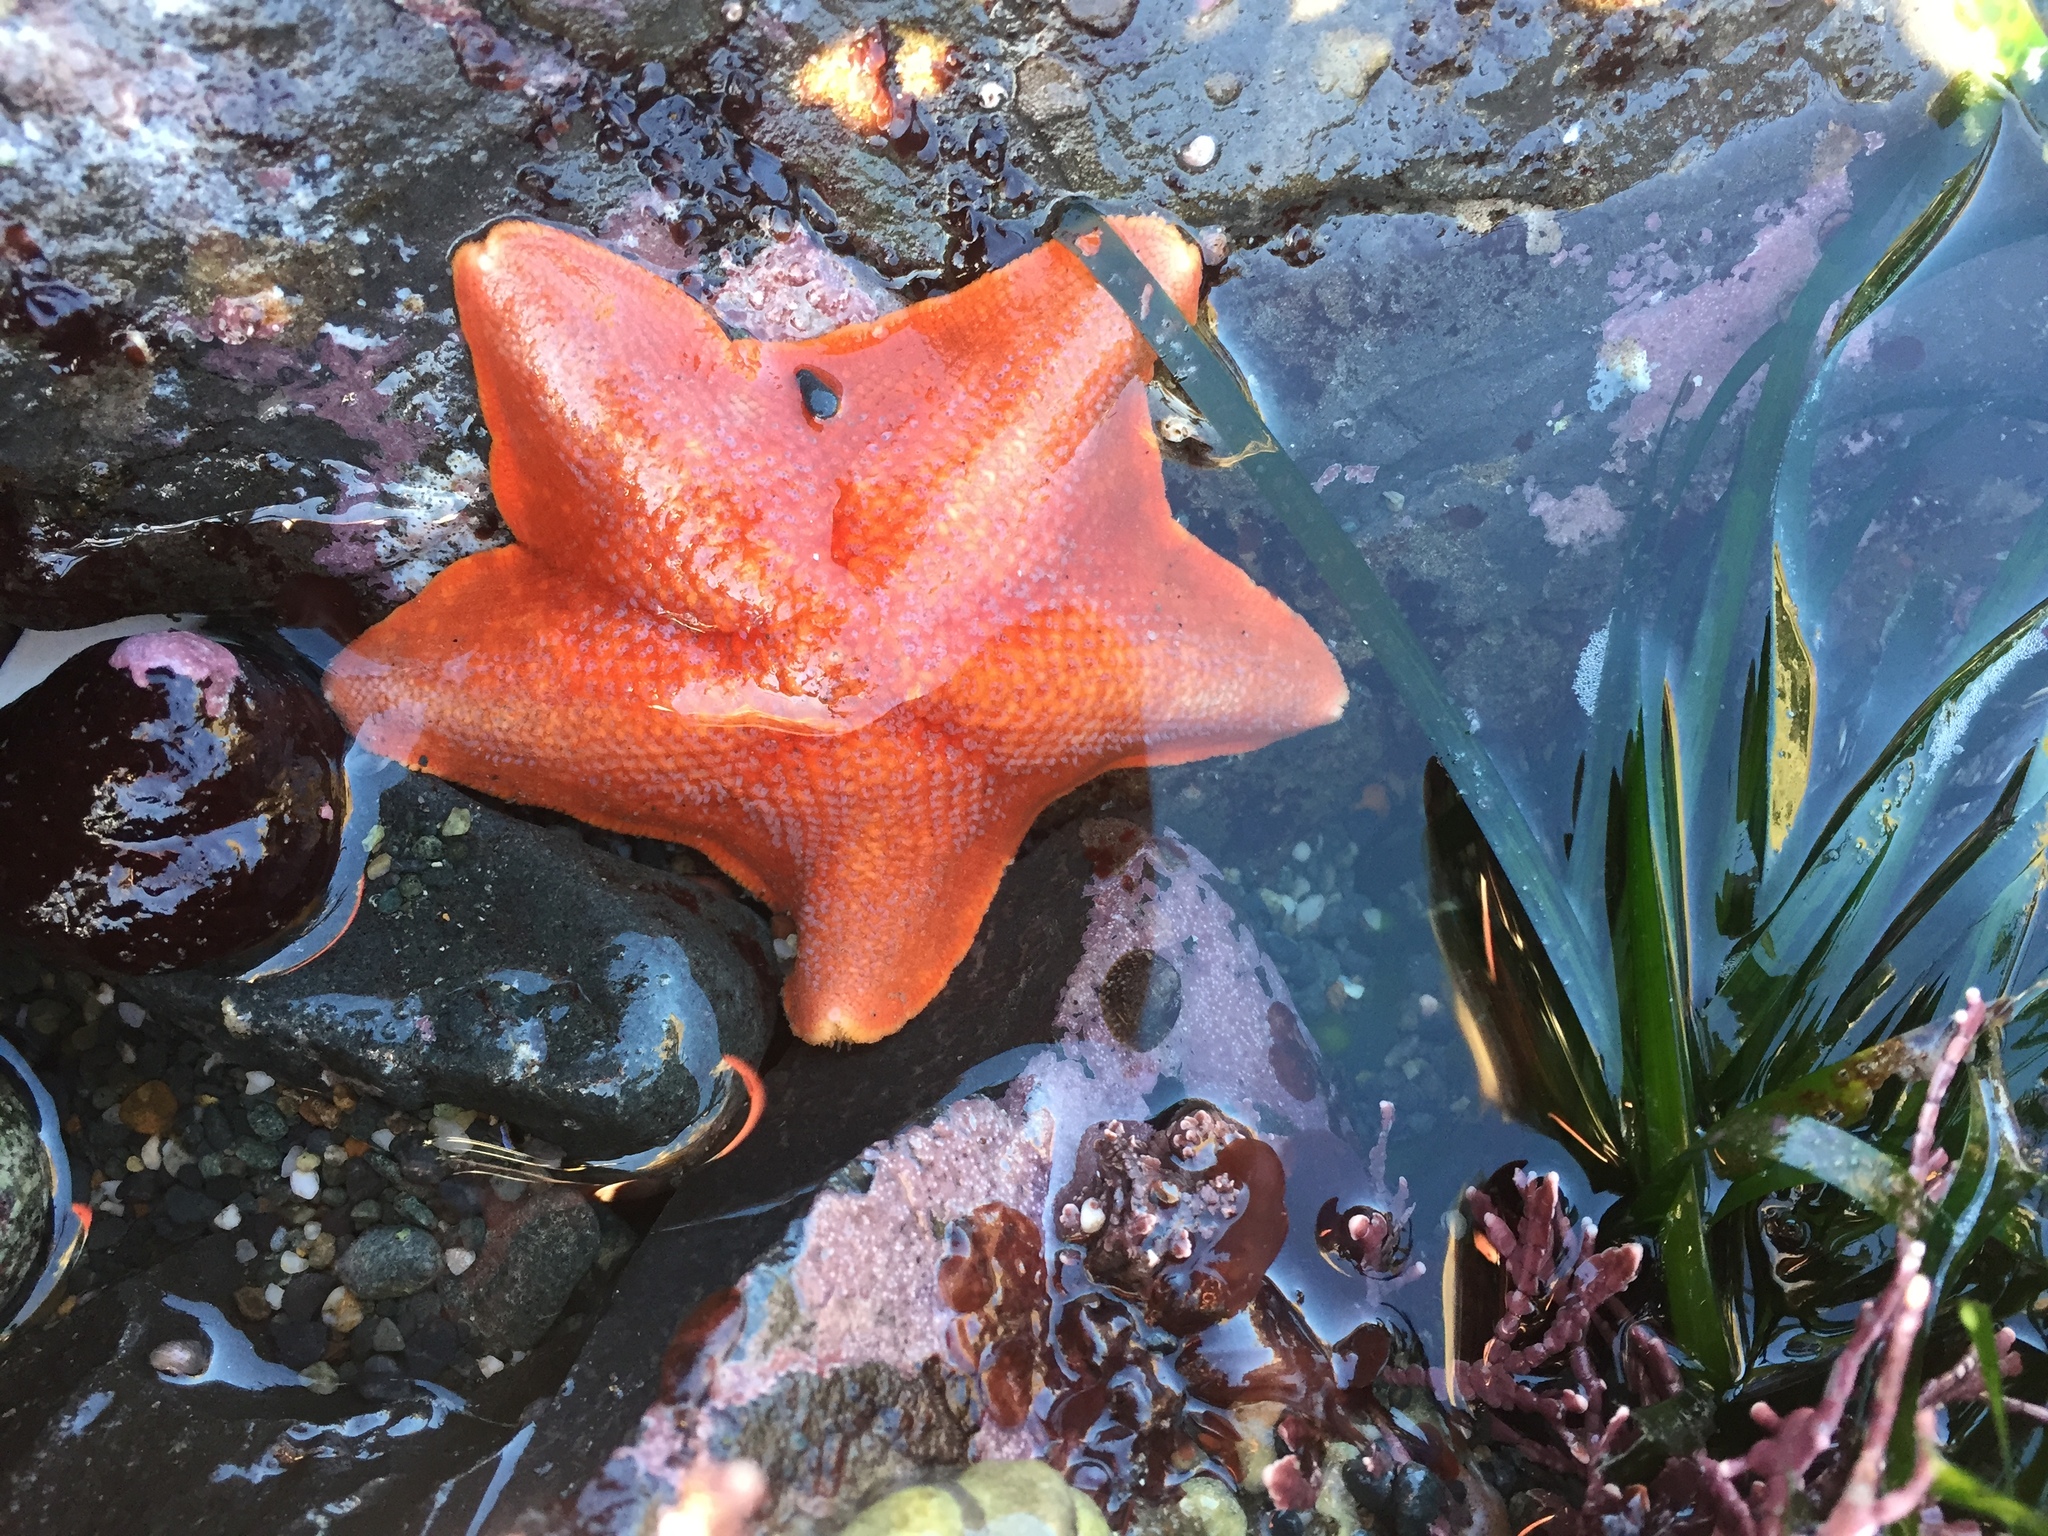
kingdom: Animalia
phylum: Echinodermata
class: Asteroidea
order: Valvatida
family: Asterinidae
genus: Patiria
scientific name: Patiria miniata
